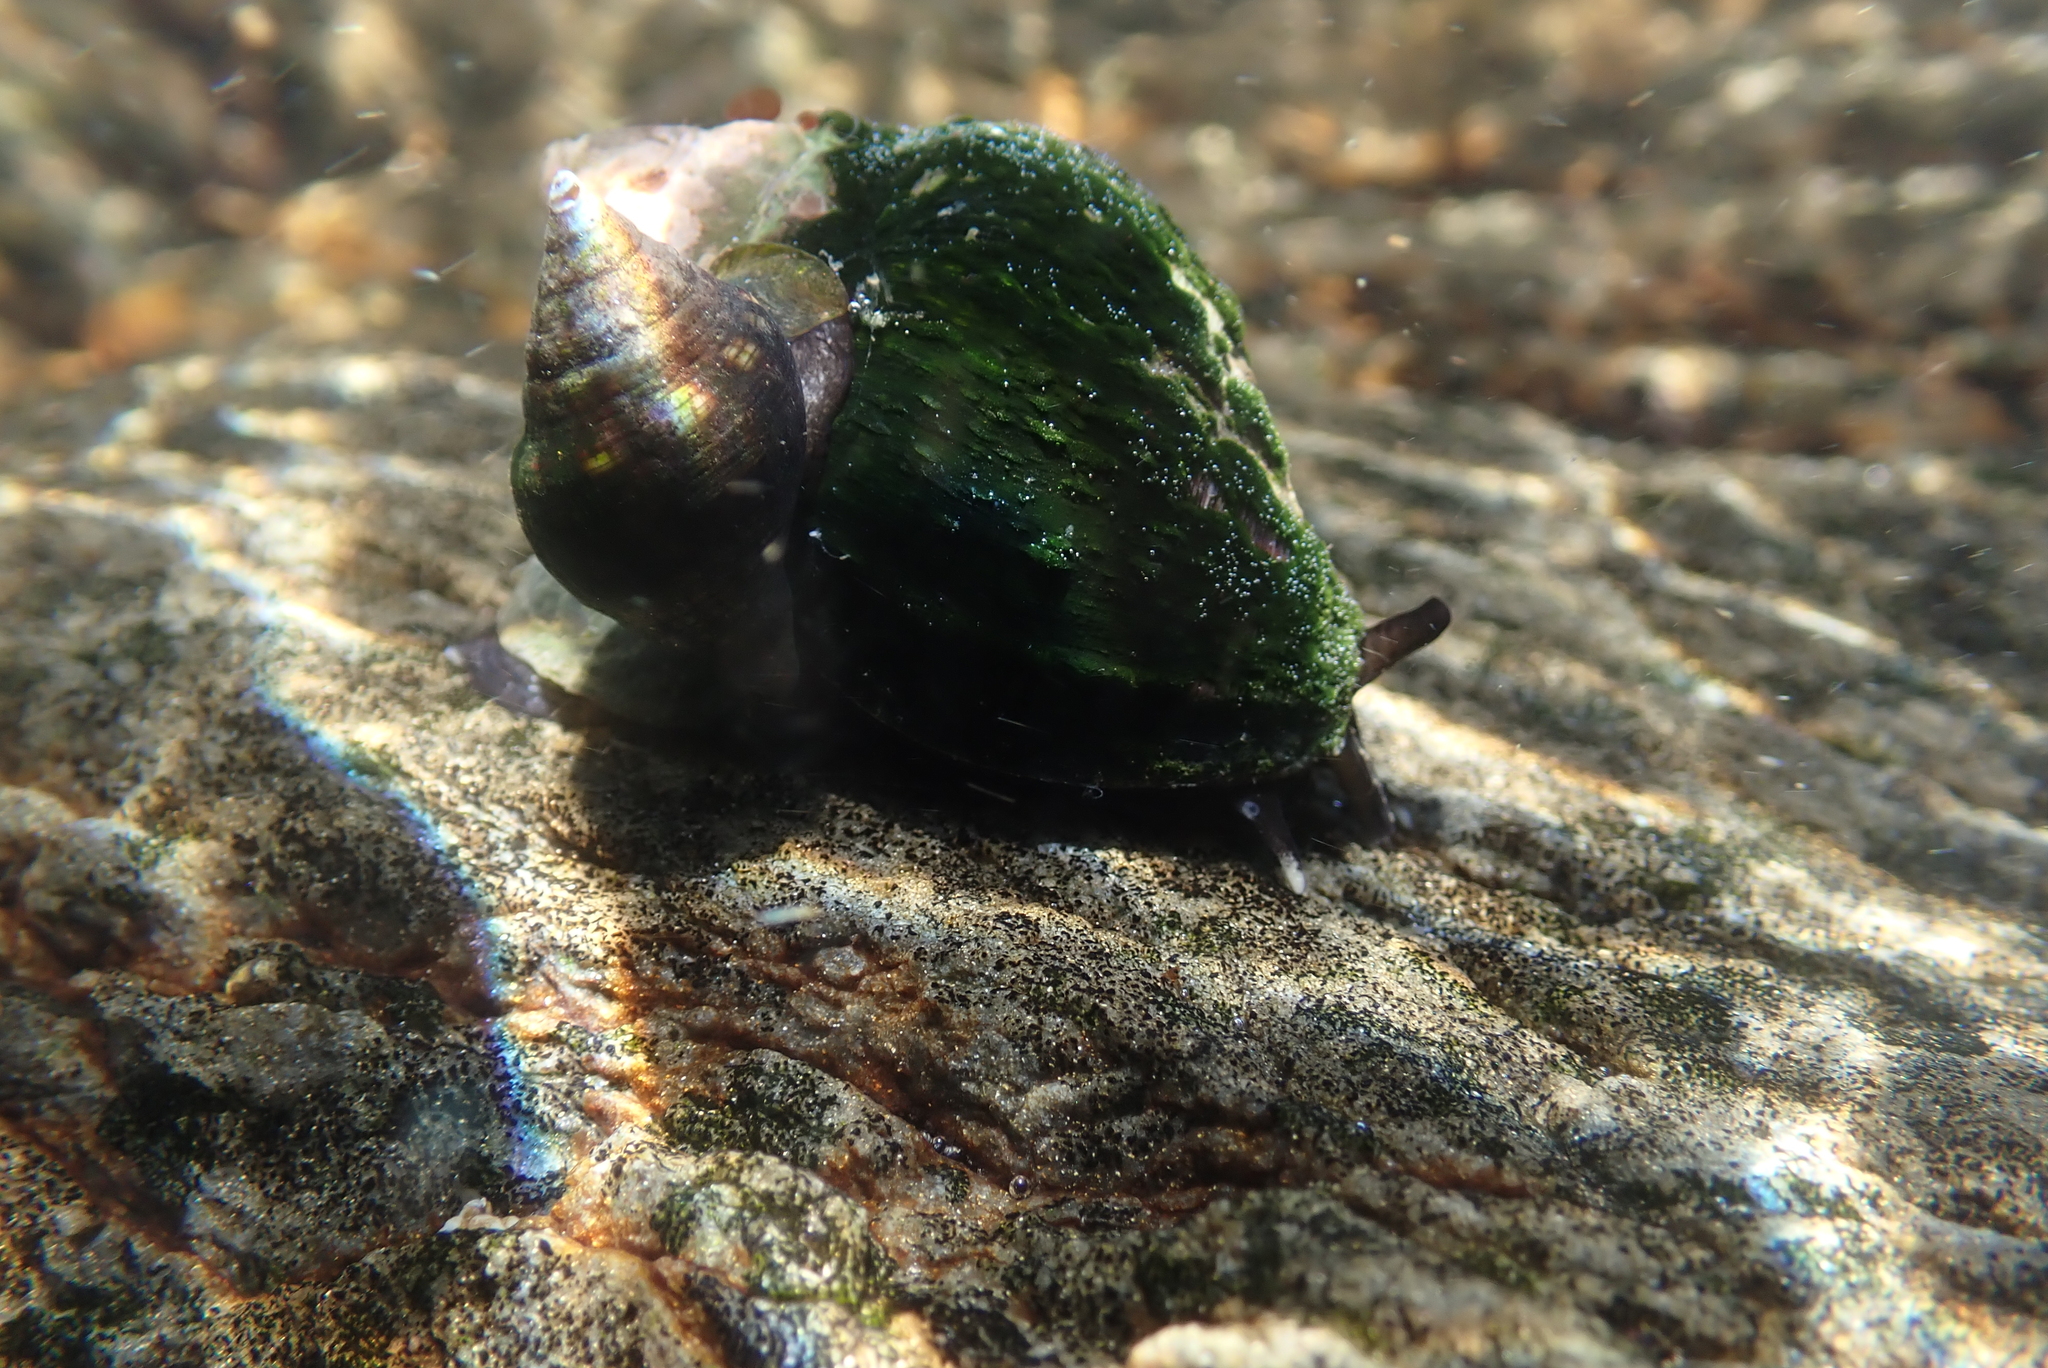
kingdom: Animalia
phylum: Mollusca
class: Gastropoda
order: Neogastropoda
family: Buccinidae
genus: Burnupena
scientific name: Burnupena lagenaria
